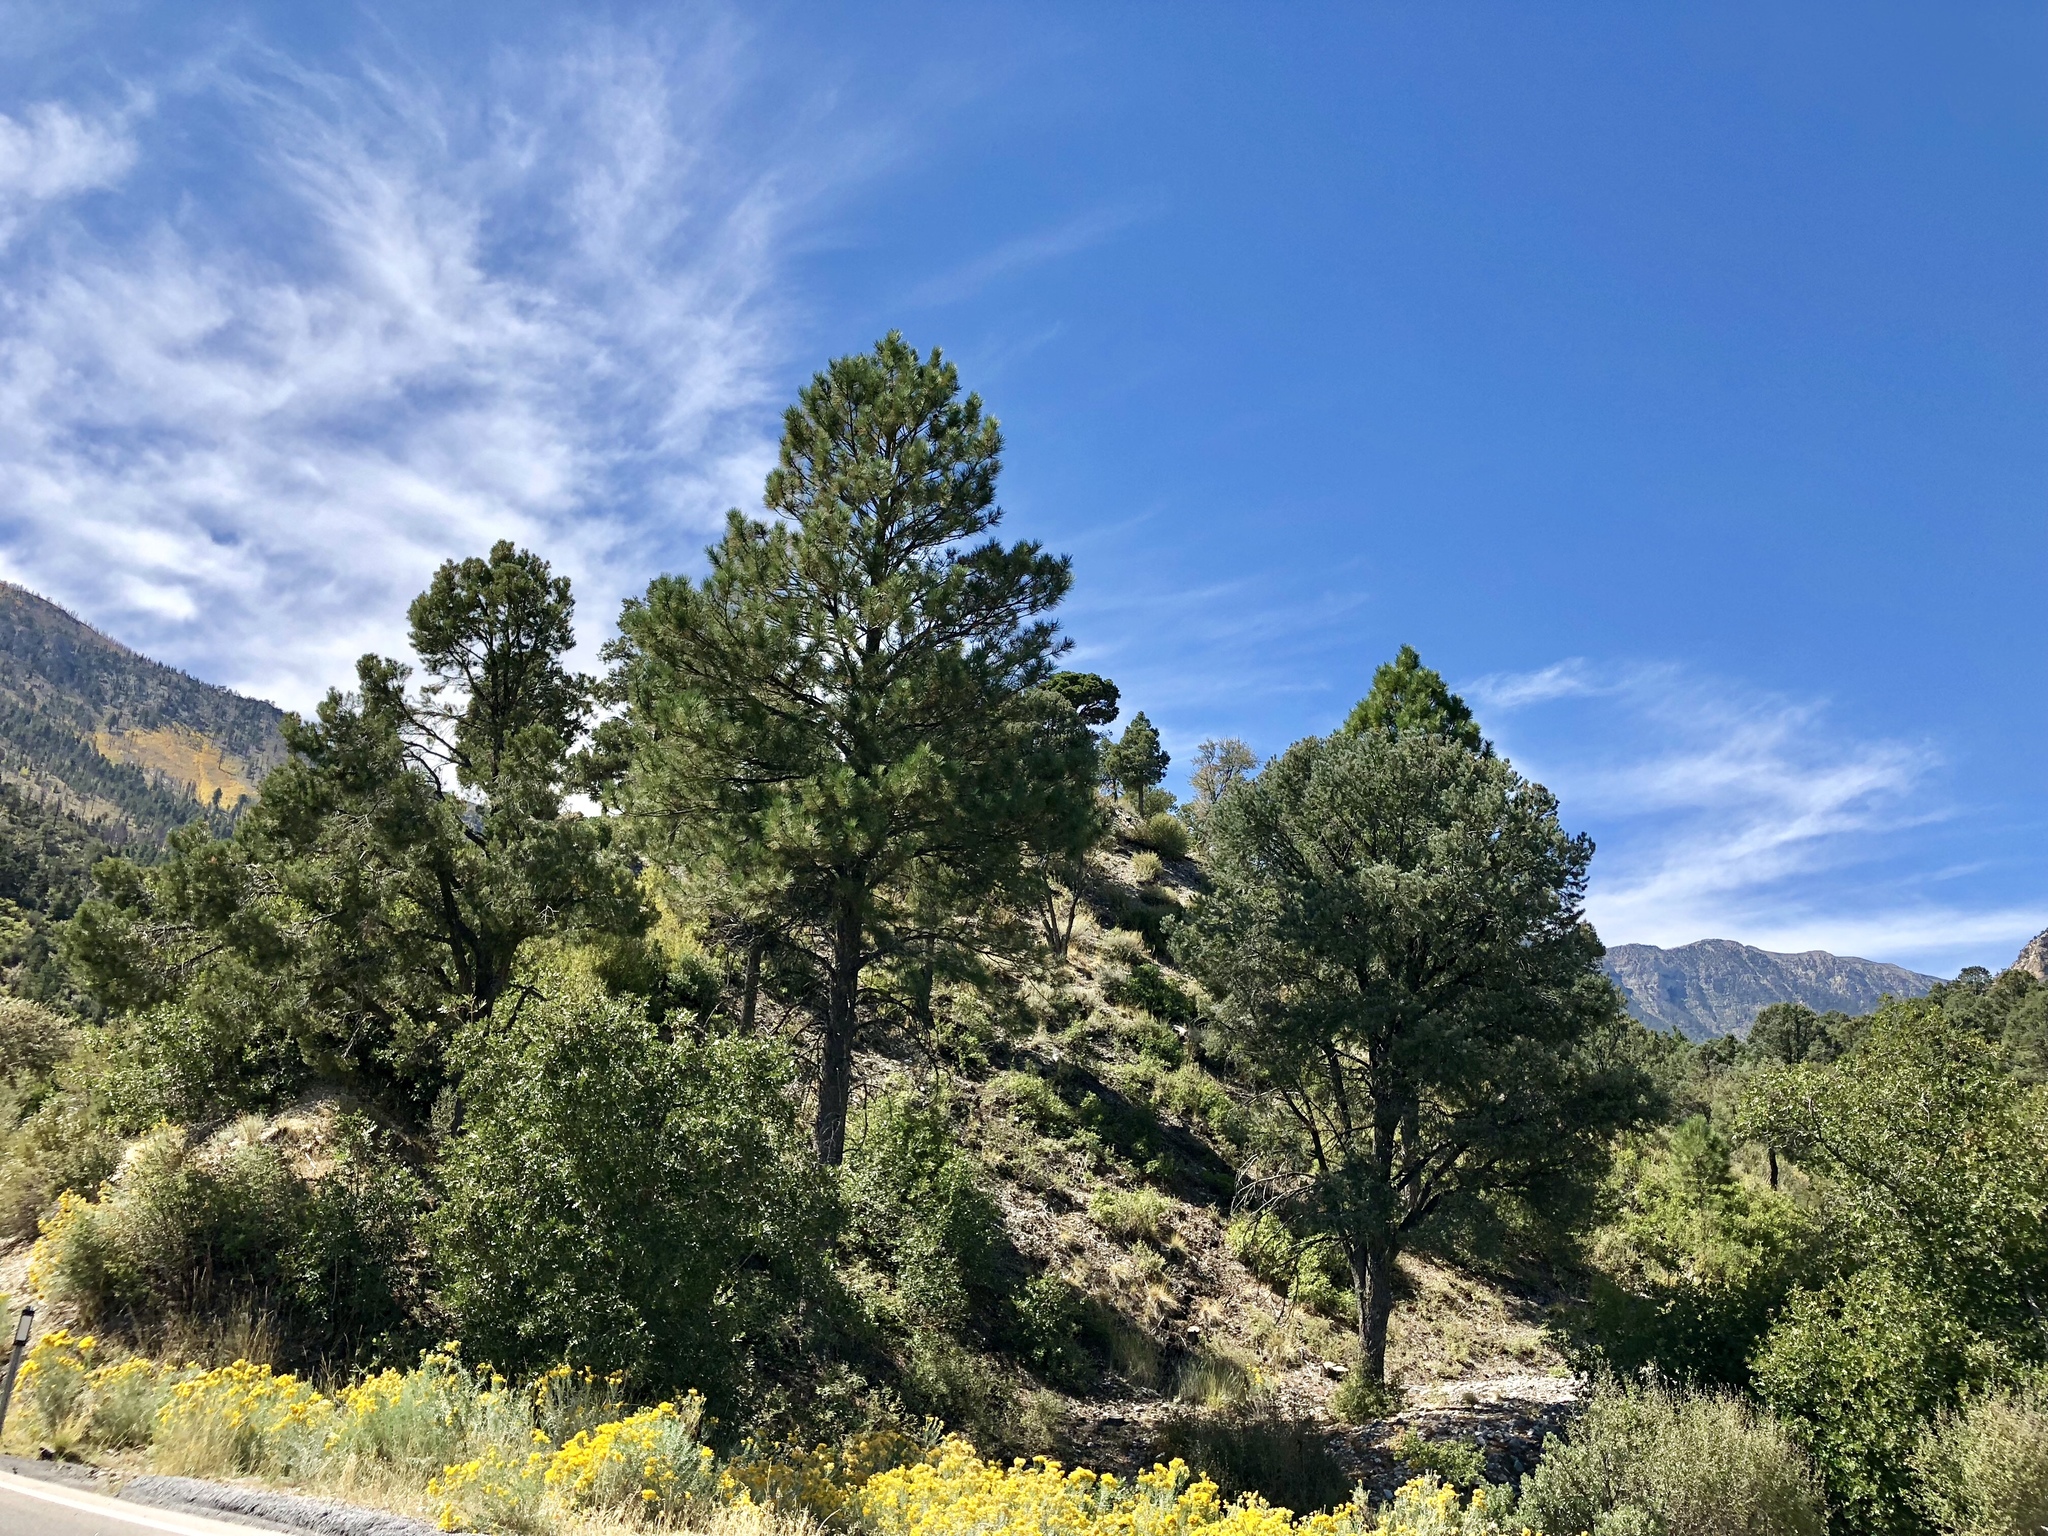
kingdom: Plantae
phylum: Tracheophyta
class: Pinopsida
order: Pinales
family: Pinaceae
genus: Pinus
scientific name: Pinus ponderosa
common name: Western yellow-pine
